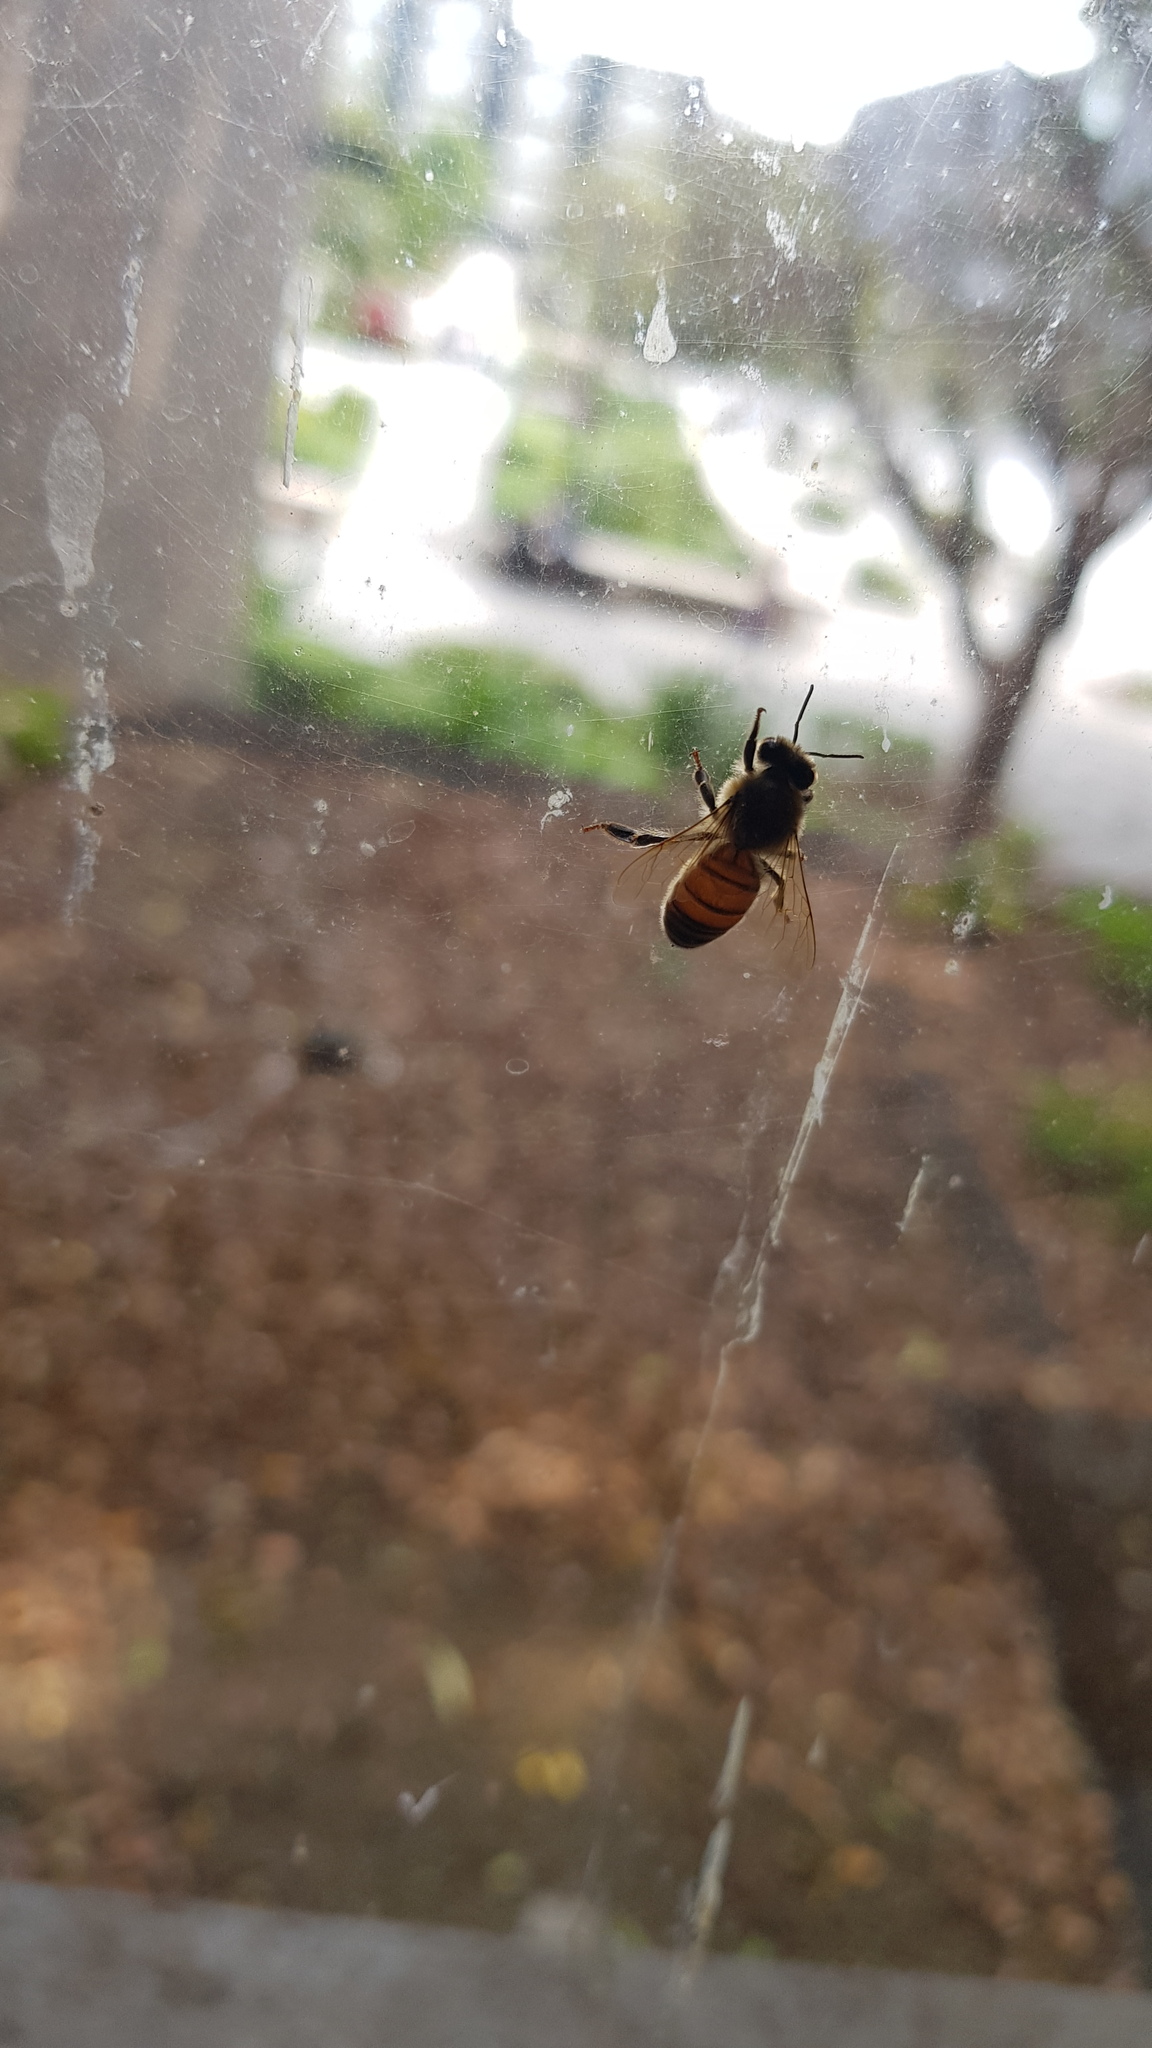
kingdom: Animalia
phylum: Arthropoda
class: Insecta
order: Hymenoptera
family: Apidae
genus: Apis
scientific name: Apis mellifera
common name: Honey bee
